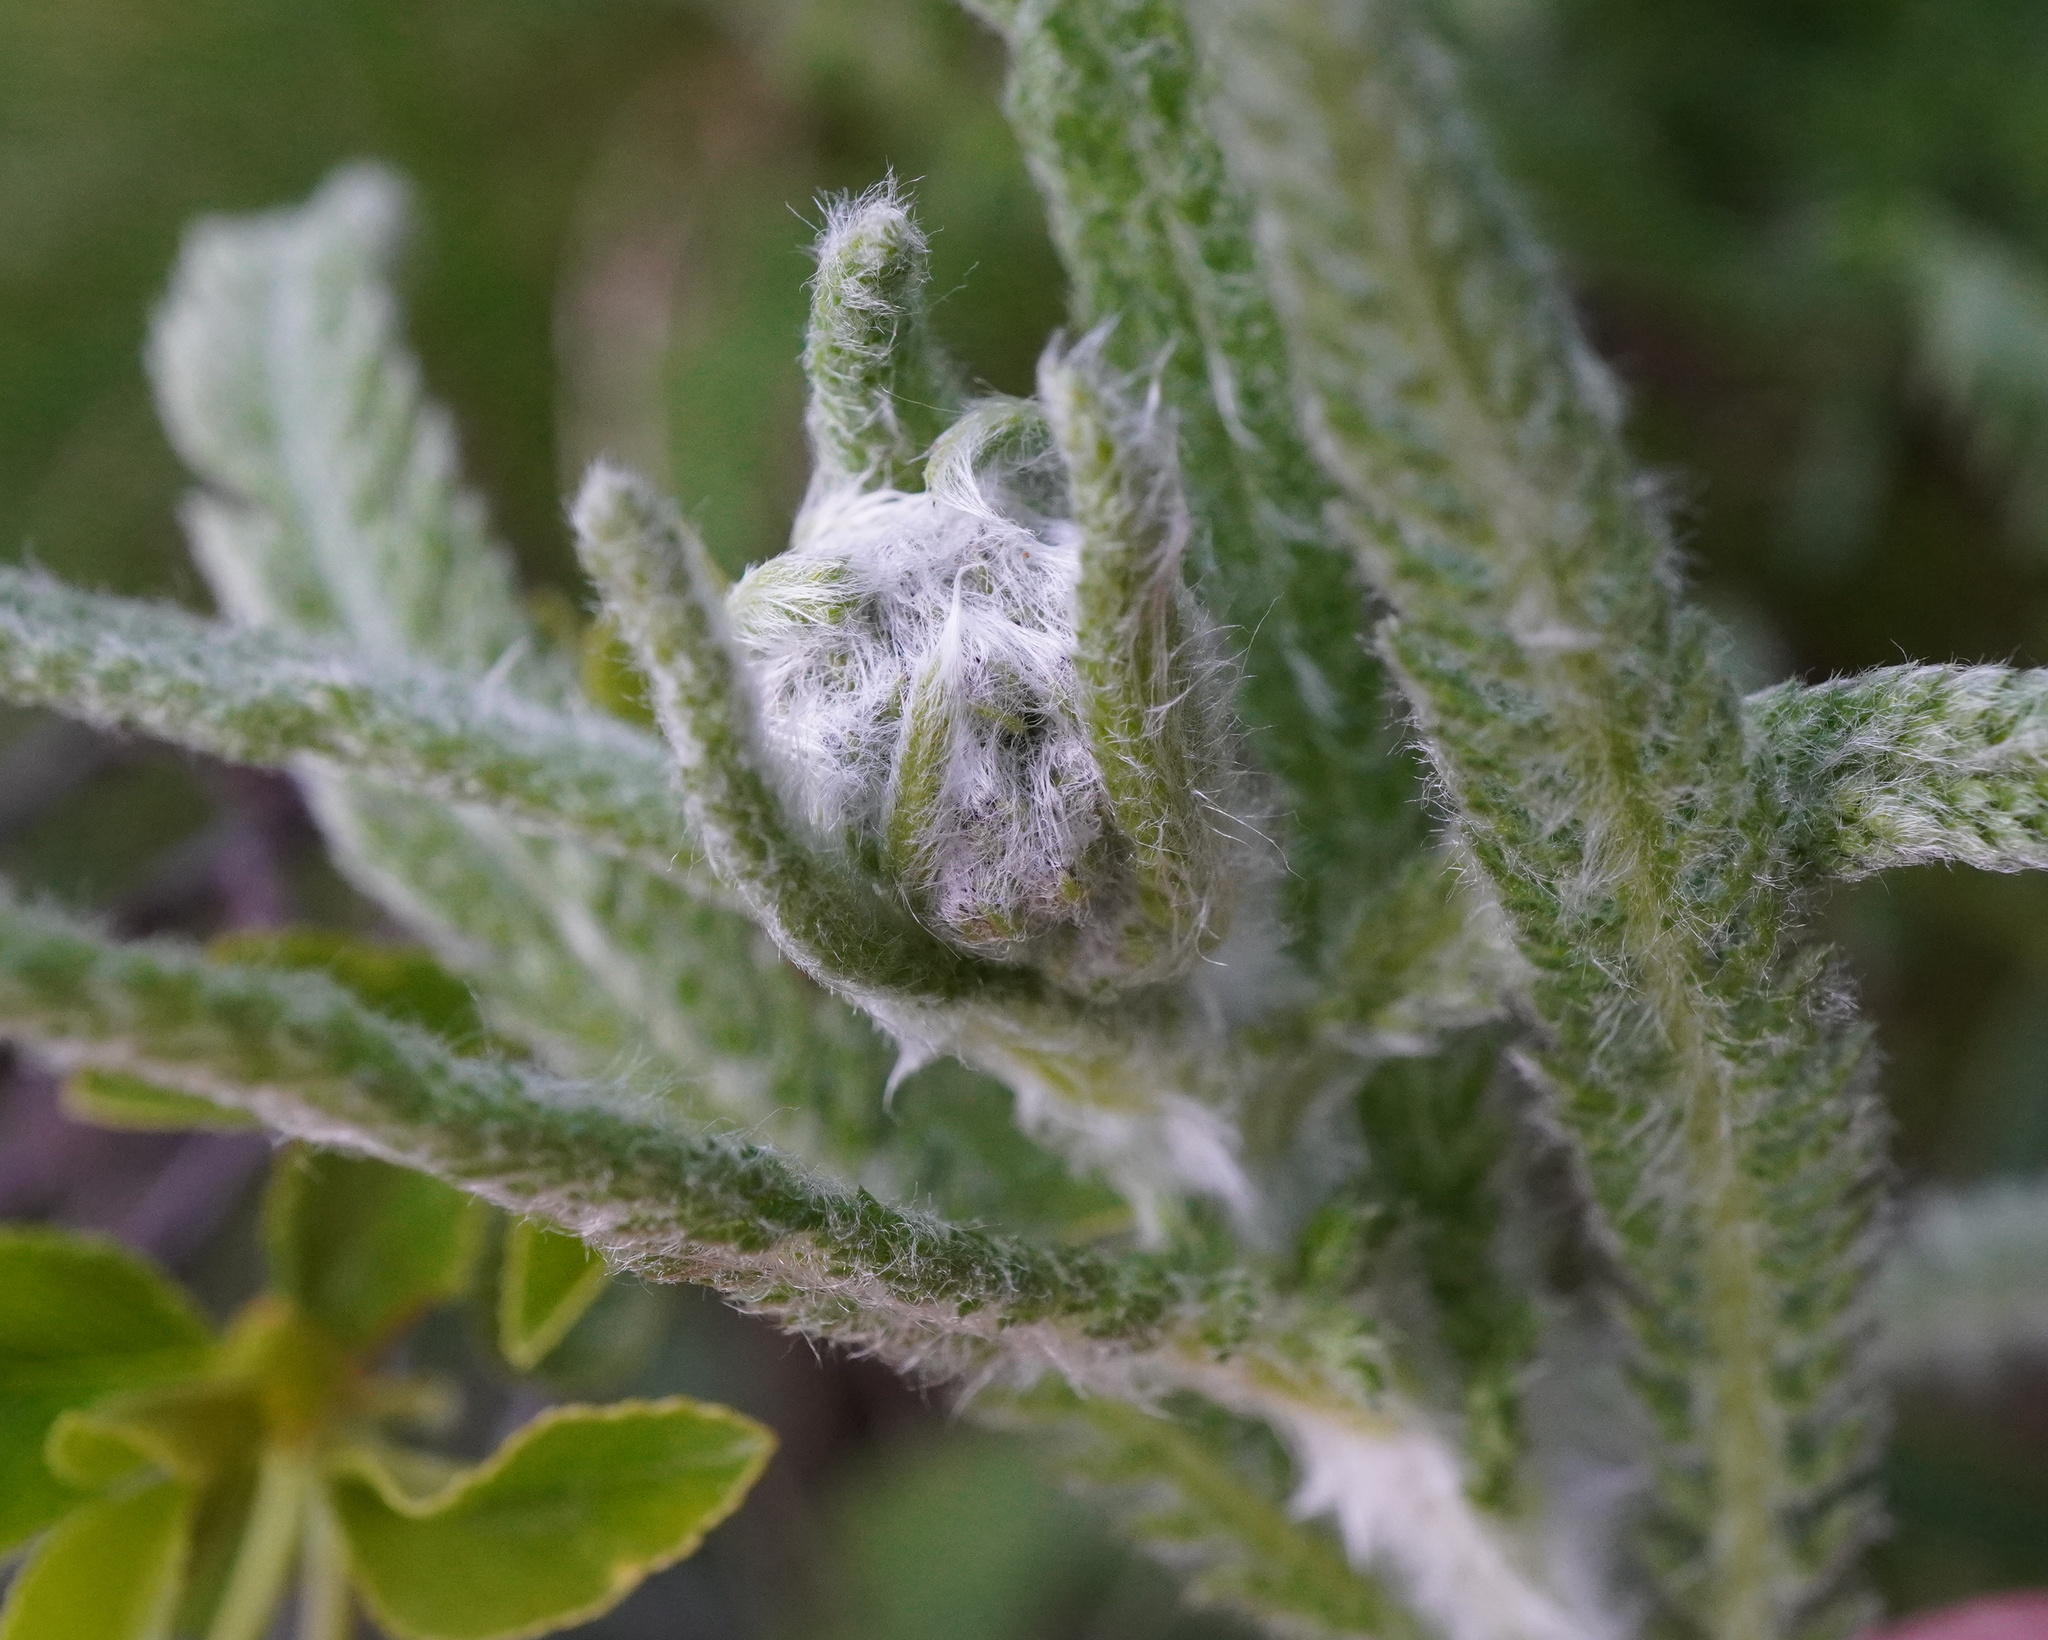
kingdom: Plantae
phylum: Tracheophyta
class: Magnoliopsida
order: Asterales
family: Asteraceae
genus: Achillea
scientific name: Achillea pannonica
